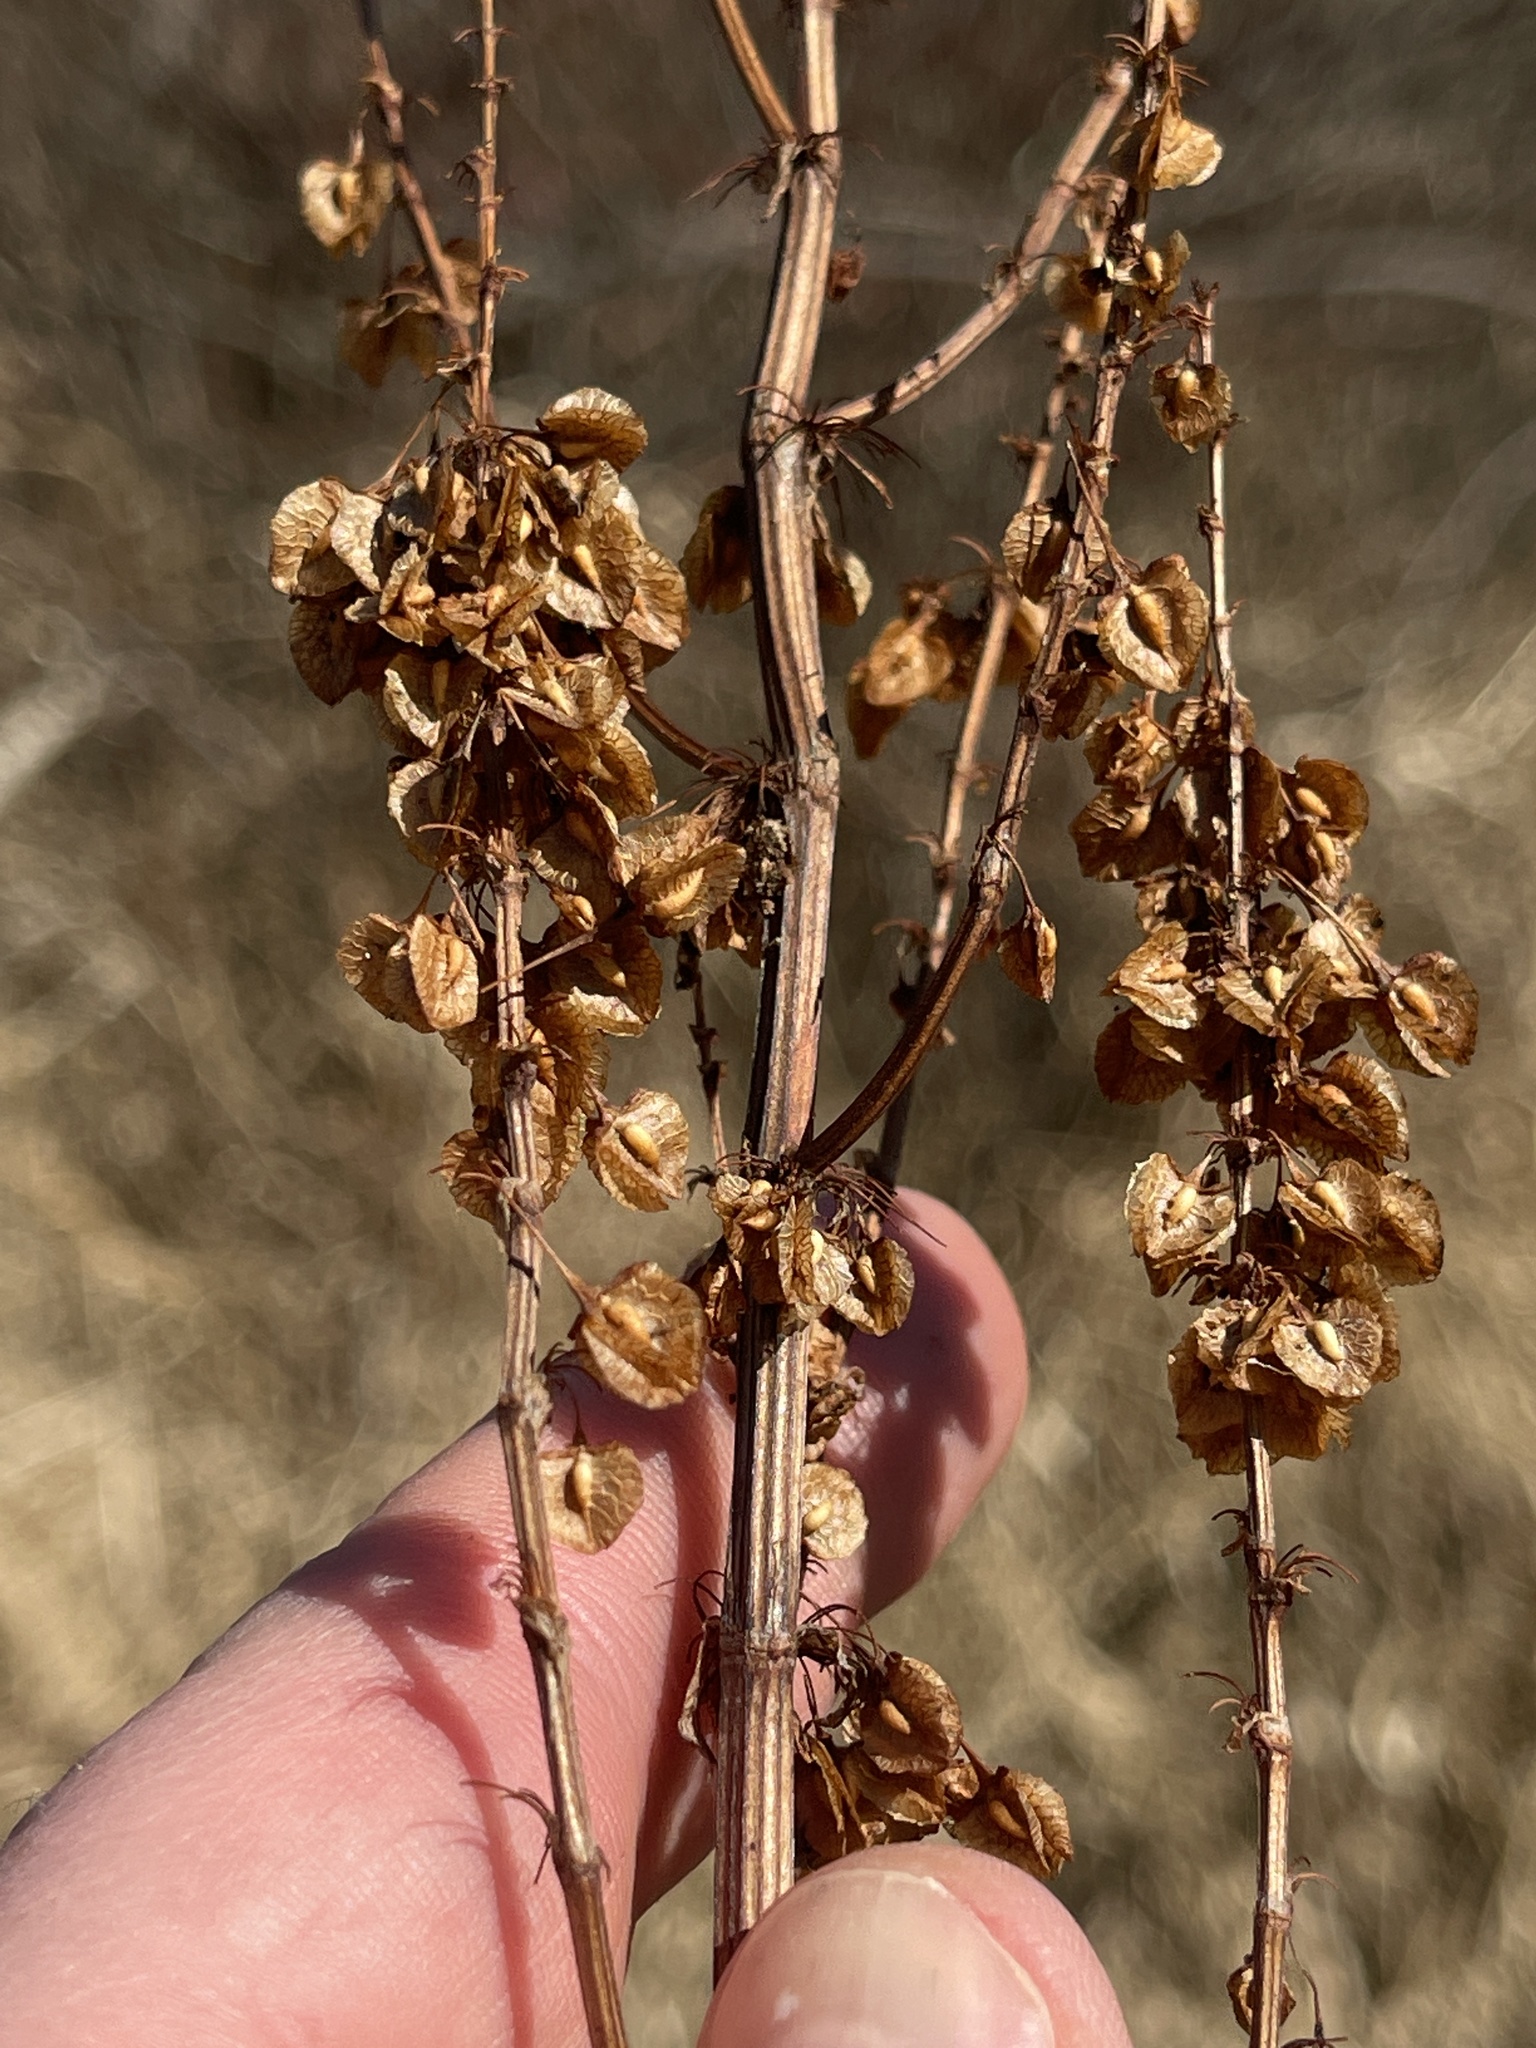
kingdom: Plantae
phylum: Tracheophyta
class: Magnoliopsida
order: Caryophyllales
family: Polygonaceae
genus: Rumex
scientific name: Rumex verticillatus
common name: Swamp dock
